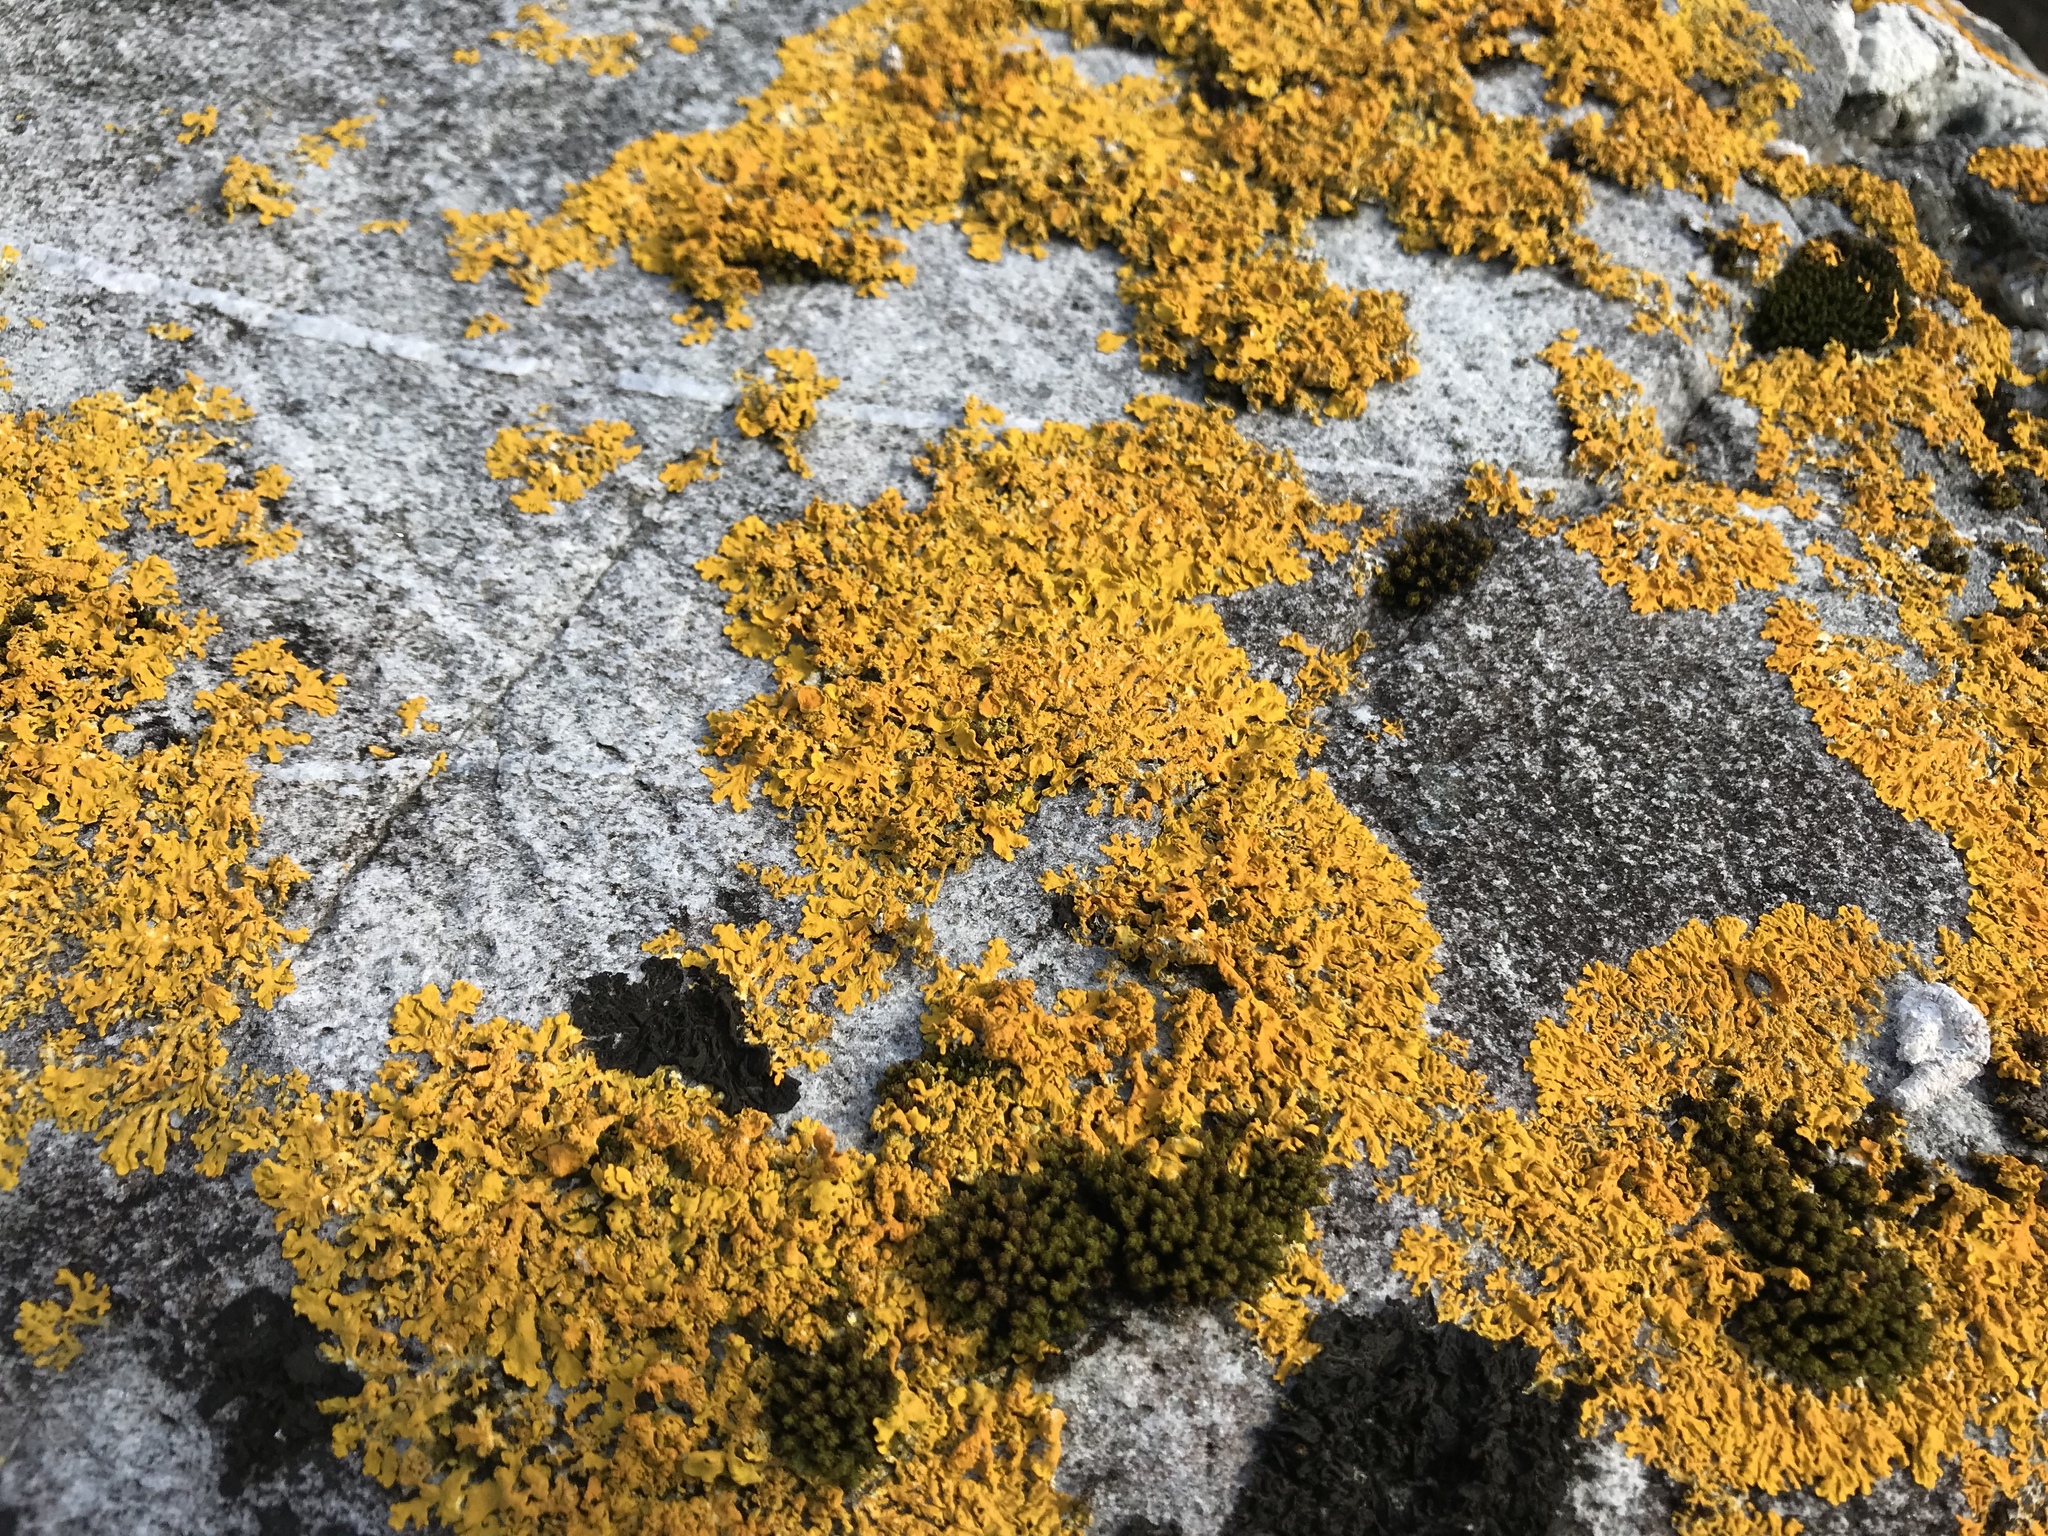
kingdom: Fungi
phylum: Ascomycota
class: Lecanoromycetes
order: Teloschistales
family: Teloschistaceae
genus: Xanthoria
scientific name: Xanthoria parietina
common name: Common orange lichen
